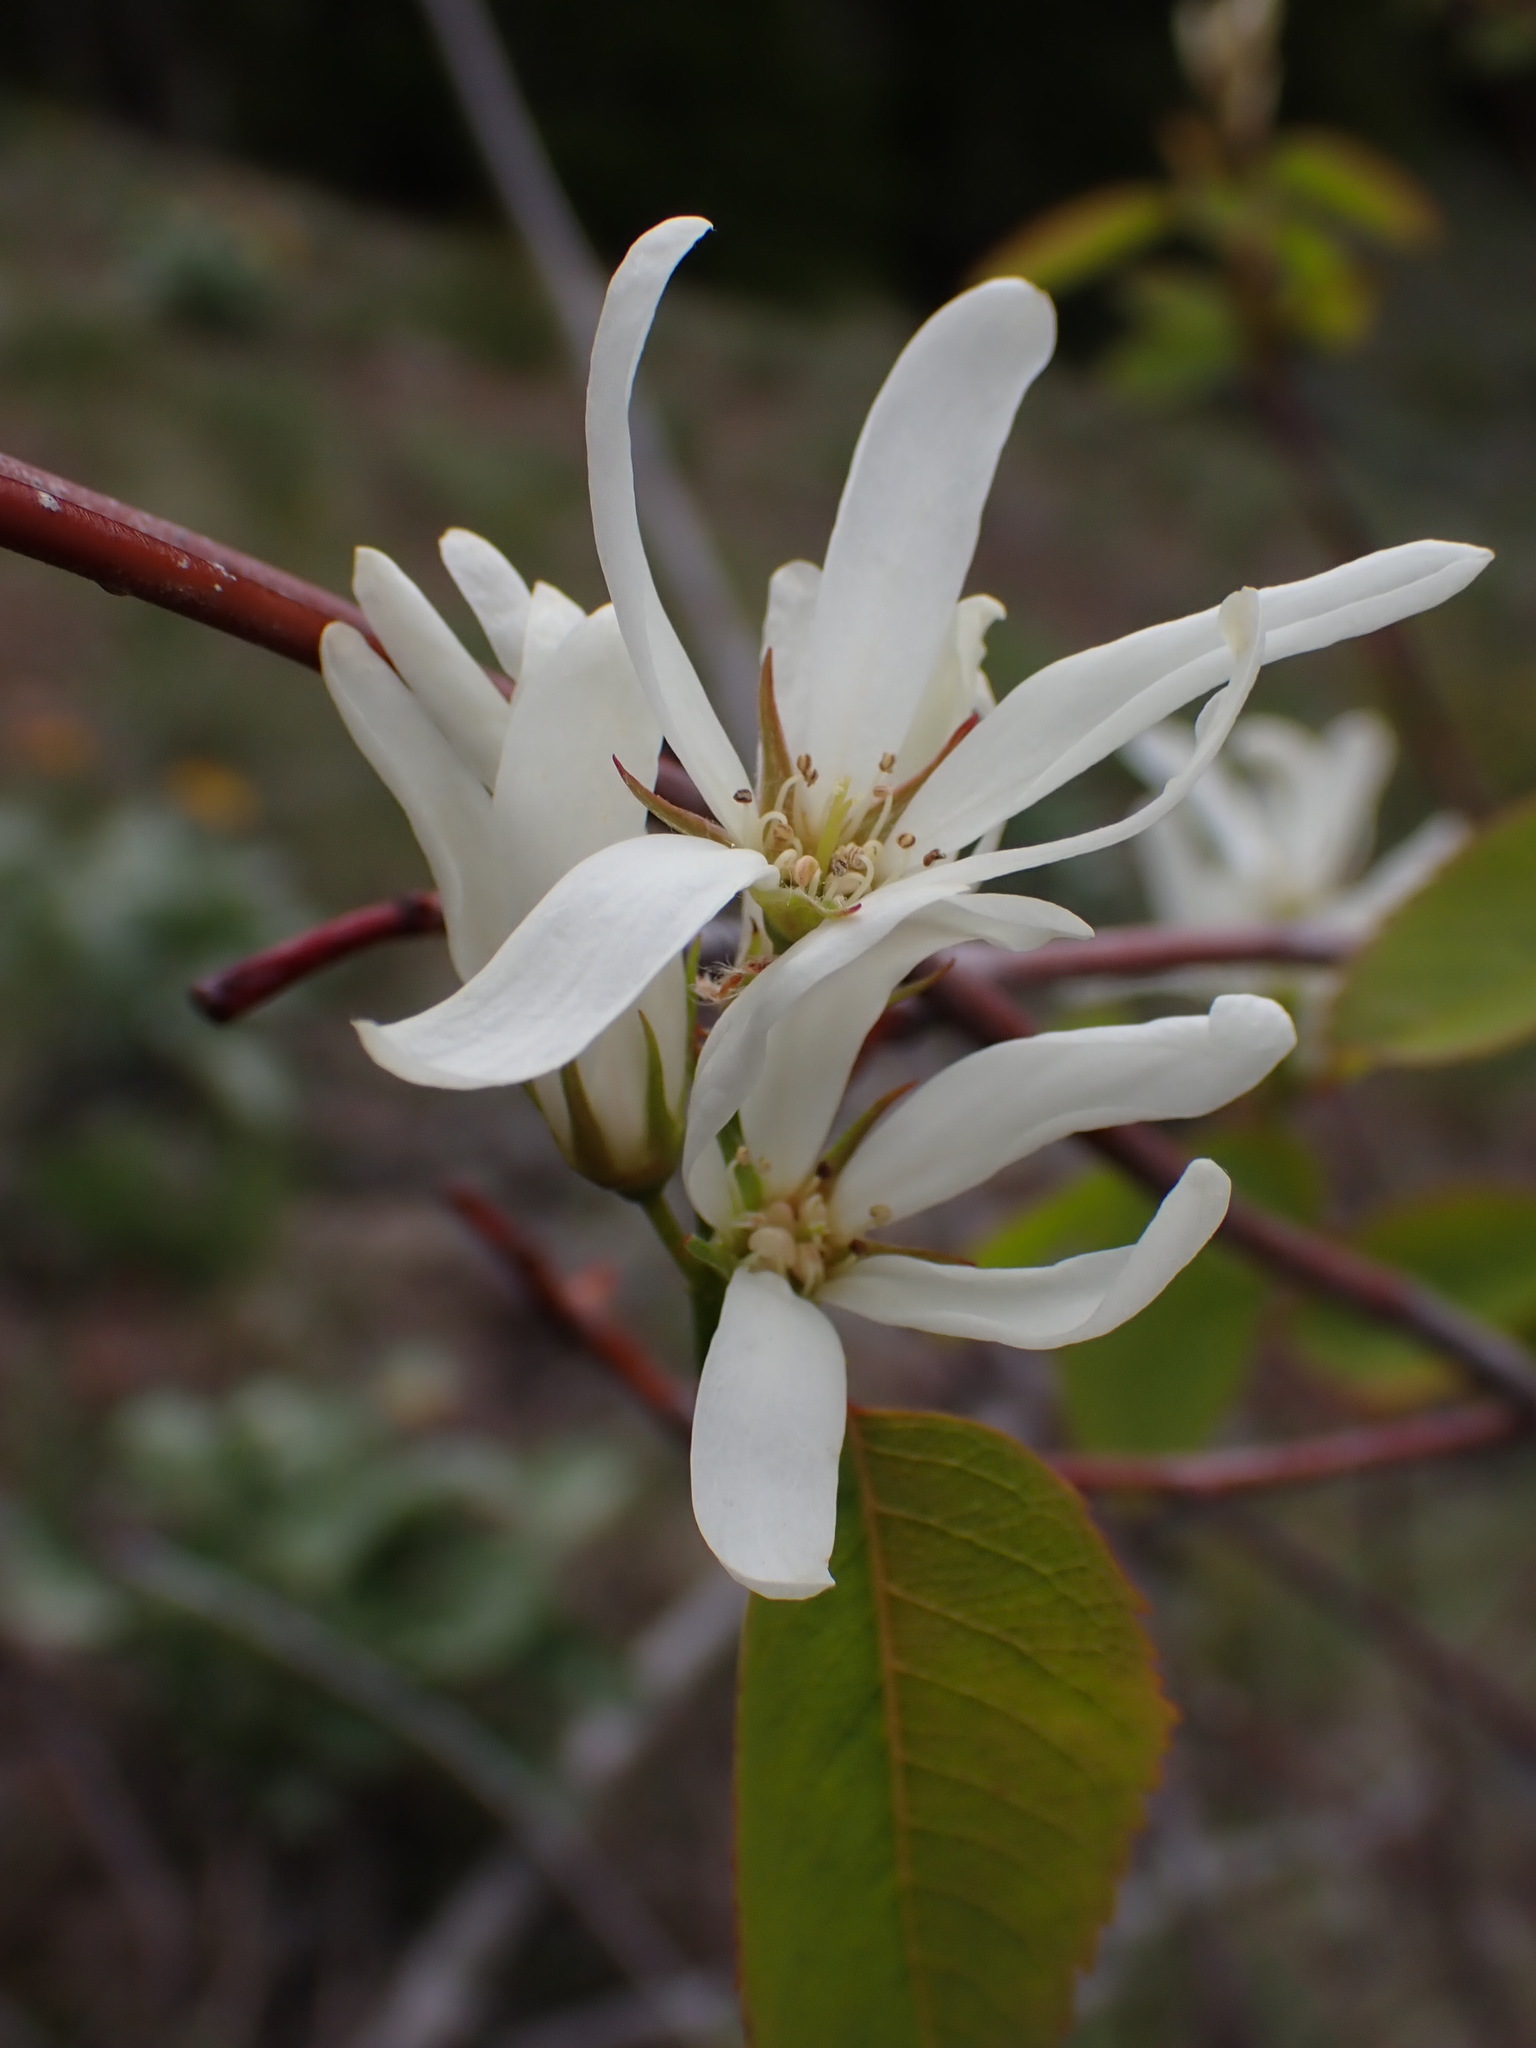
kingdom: Plantae
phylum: Tracheophyta
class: Magnoliopsida
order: Rosales
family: Rosaceae
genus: Amelanchier
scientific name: Amelanchier alnifolia
